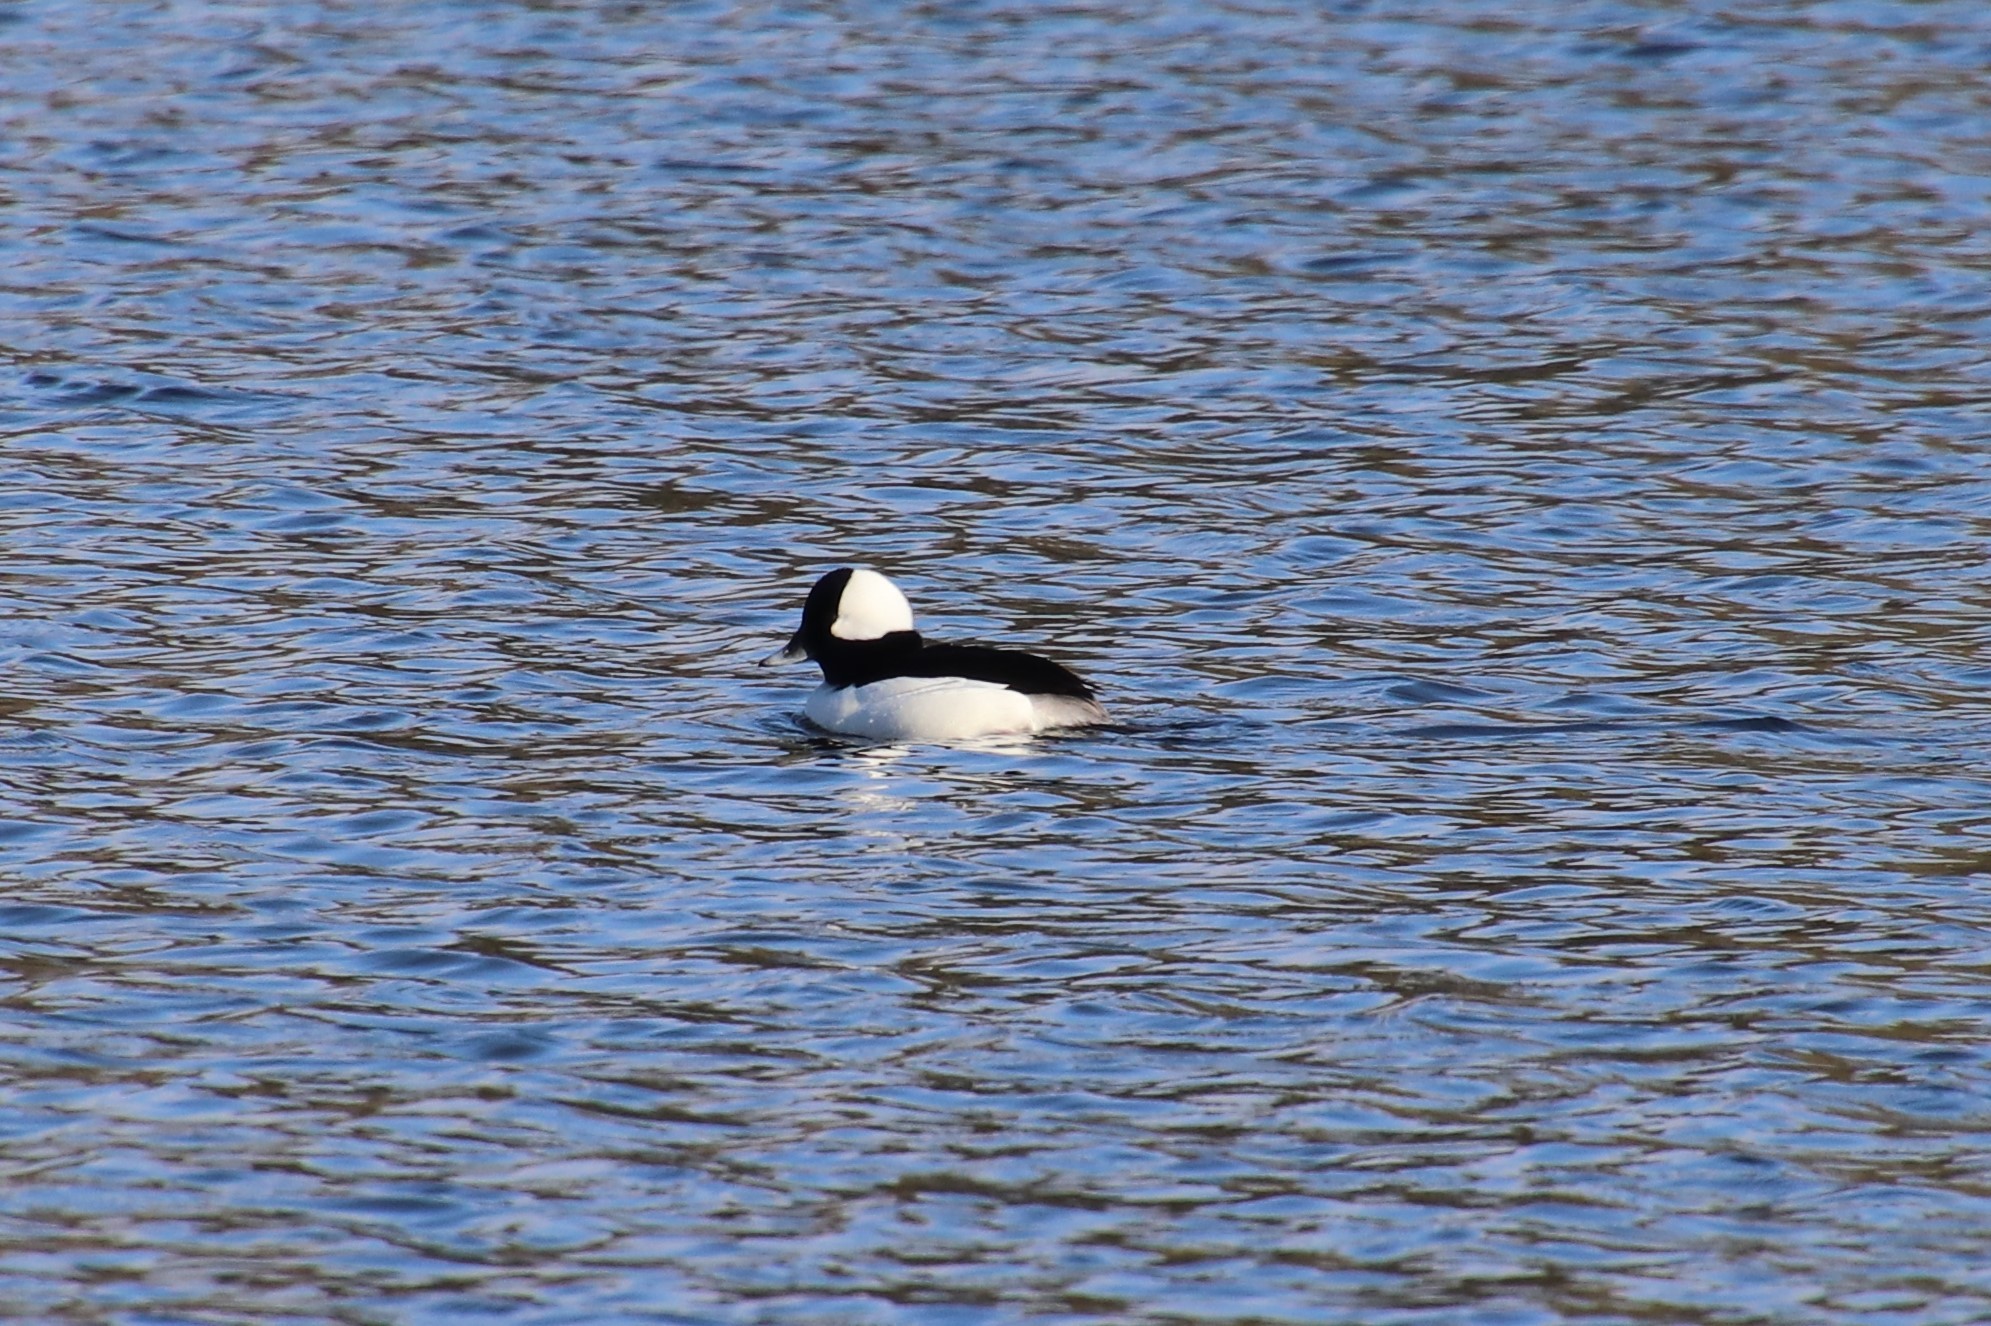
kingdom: Animalia
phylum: Chordata
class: Aves
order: Anseriformes
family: Anatidae
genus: Bucephala
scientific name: Bucephala albeola
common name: Bufflehead
